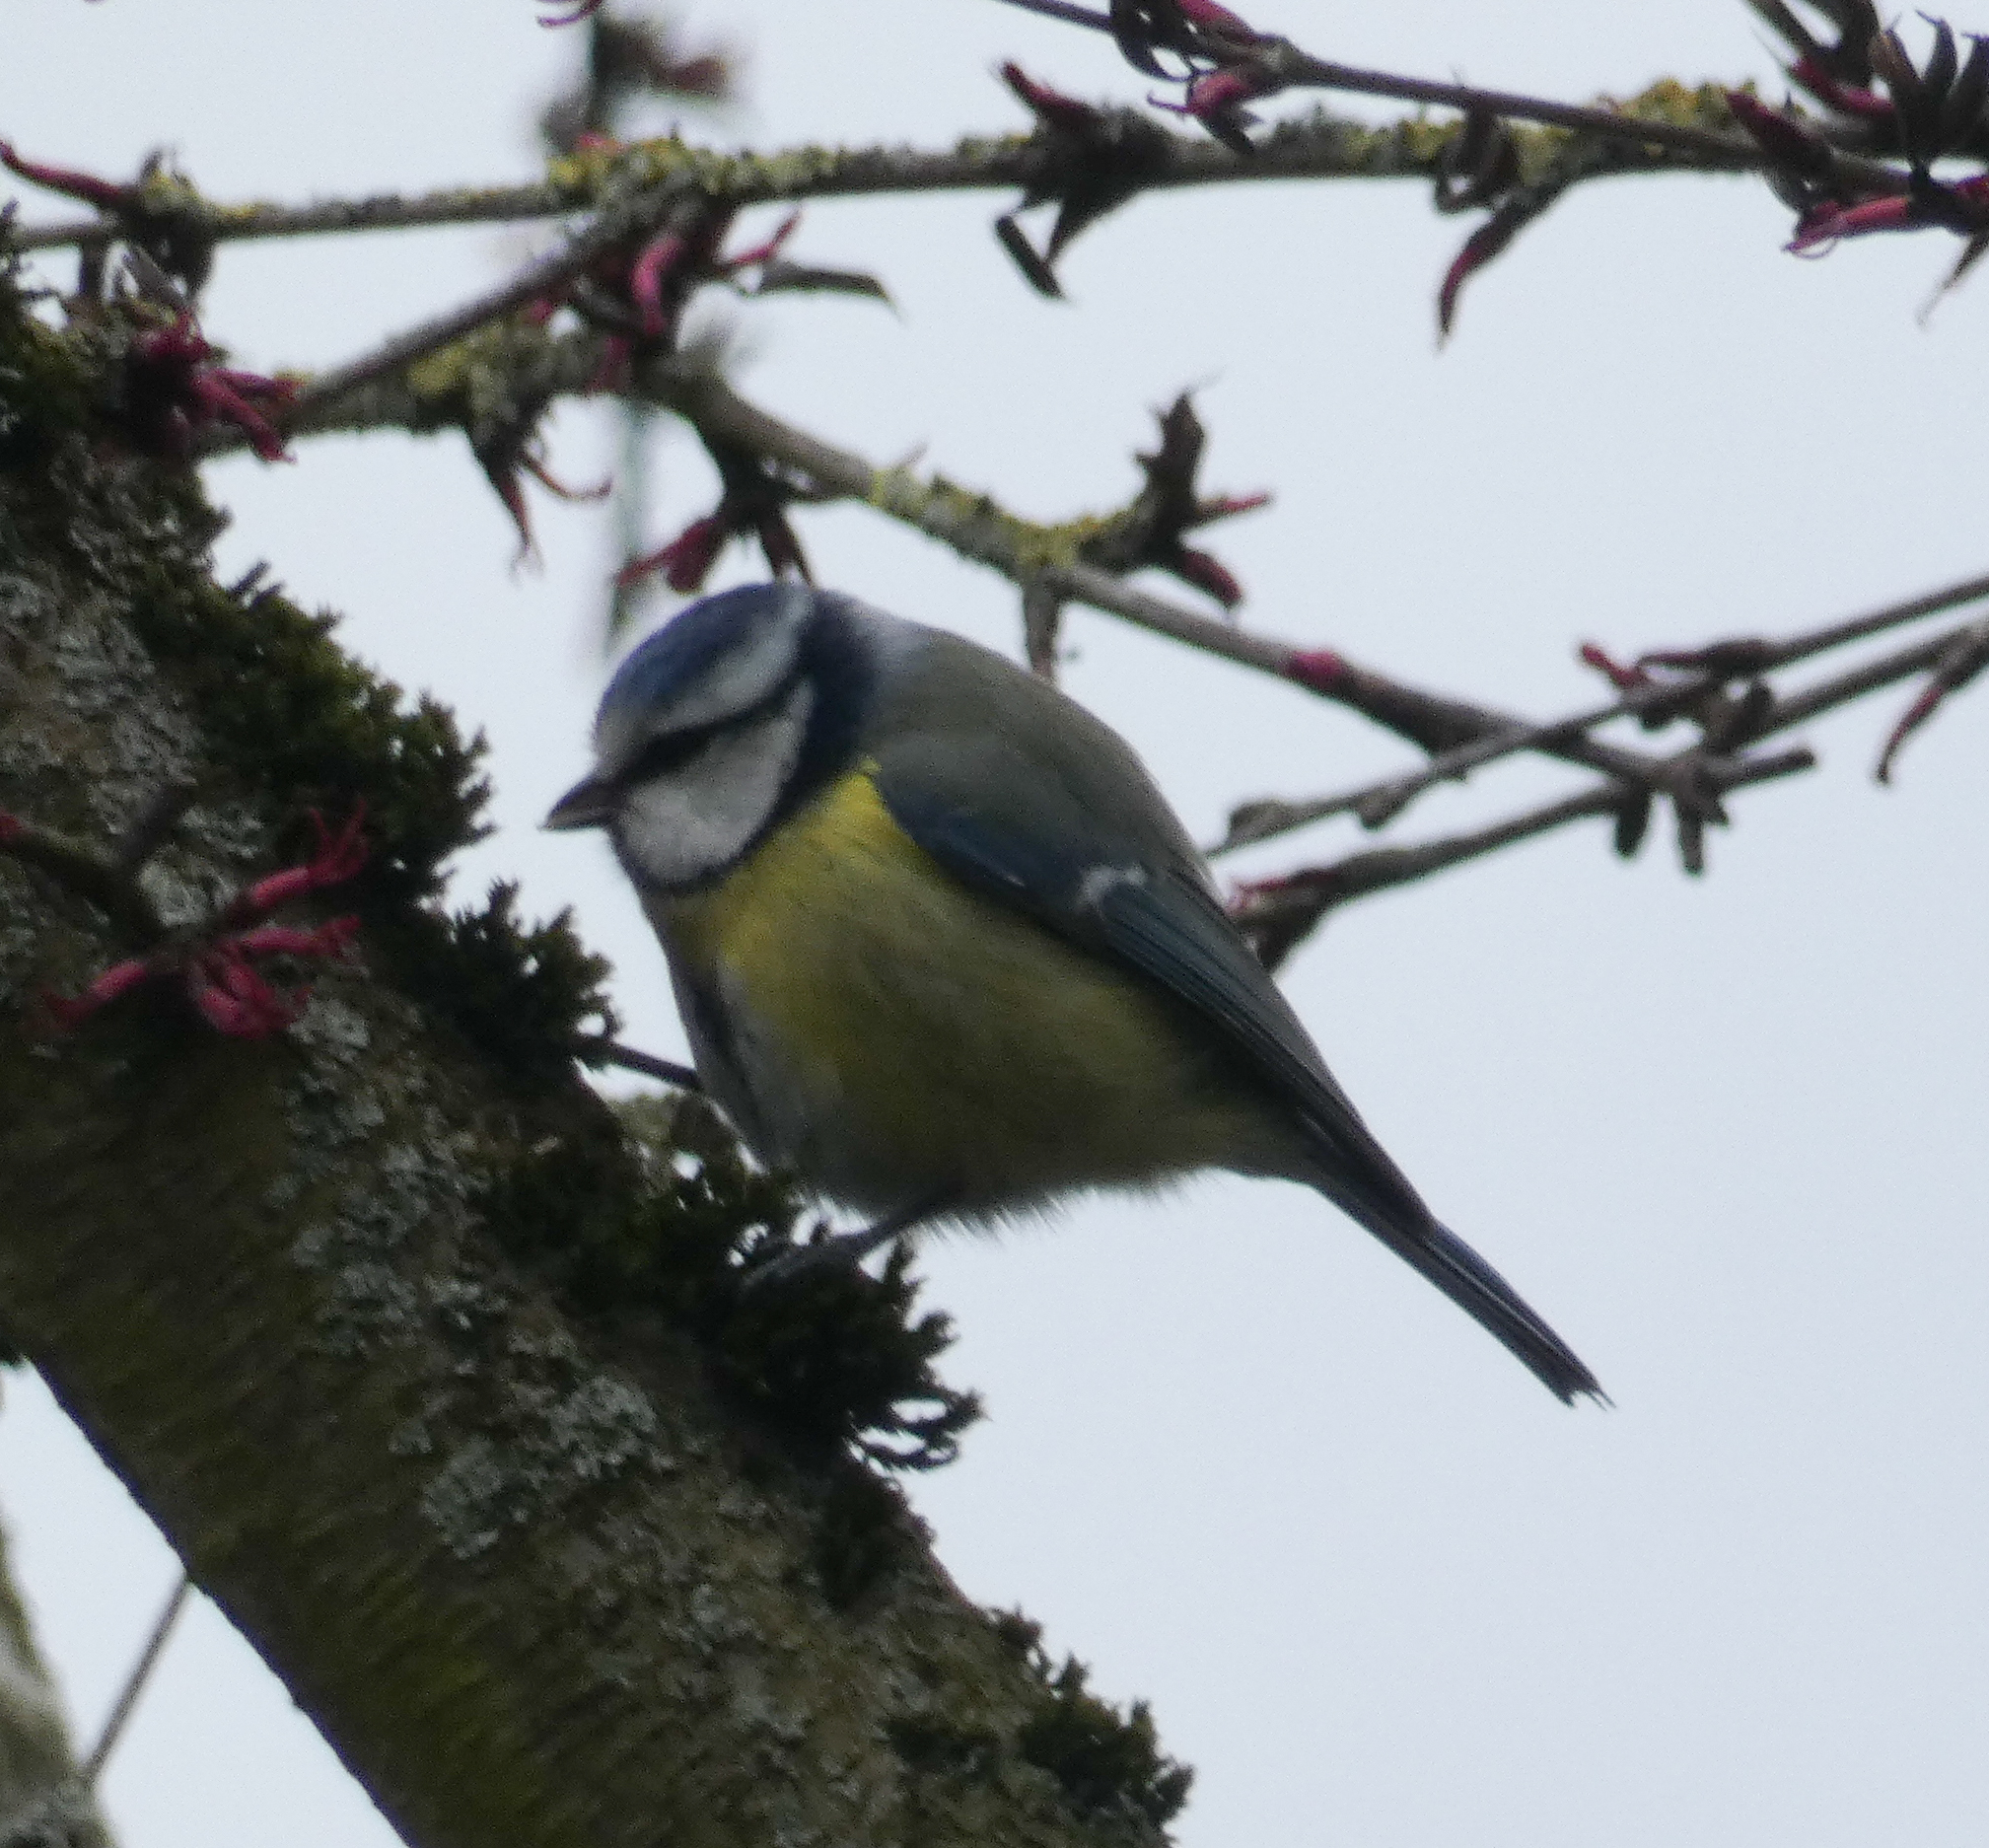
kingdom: Animalia
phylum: Chordata
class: Aves
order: Passeriformes
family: Paridae
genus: Cyanistes
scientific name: Cyanistes caeruleus
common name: Eurasian blue tit
